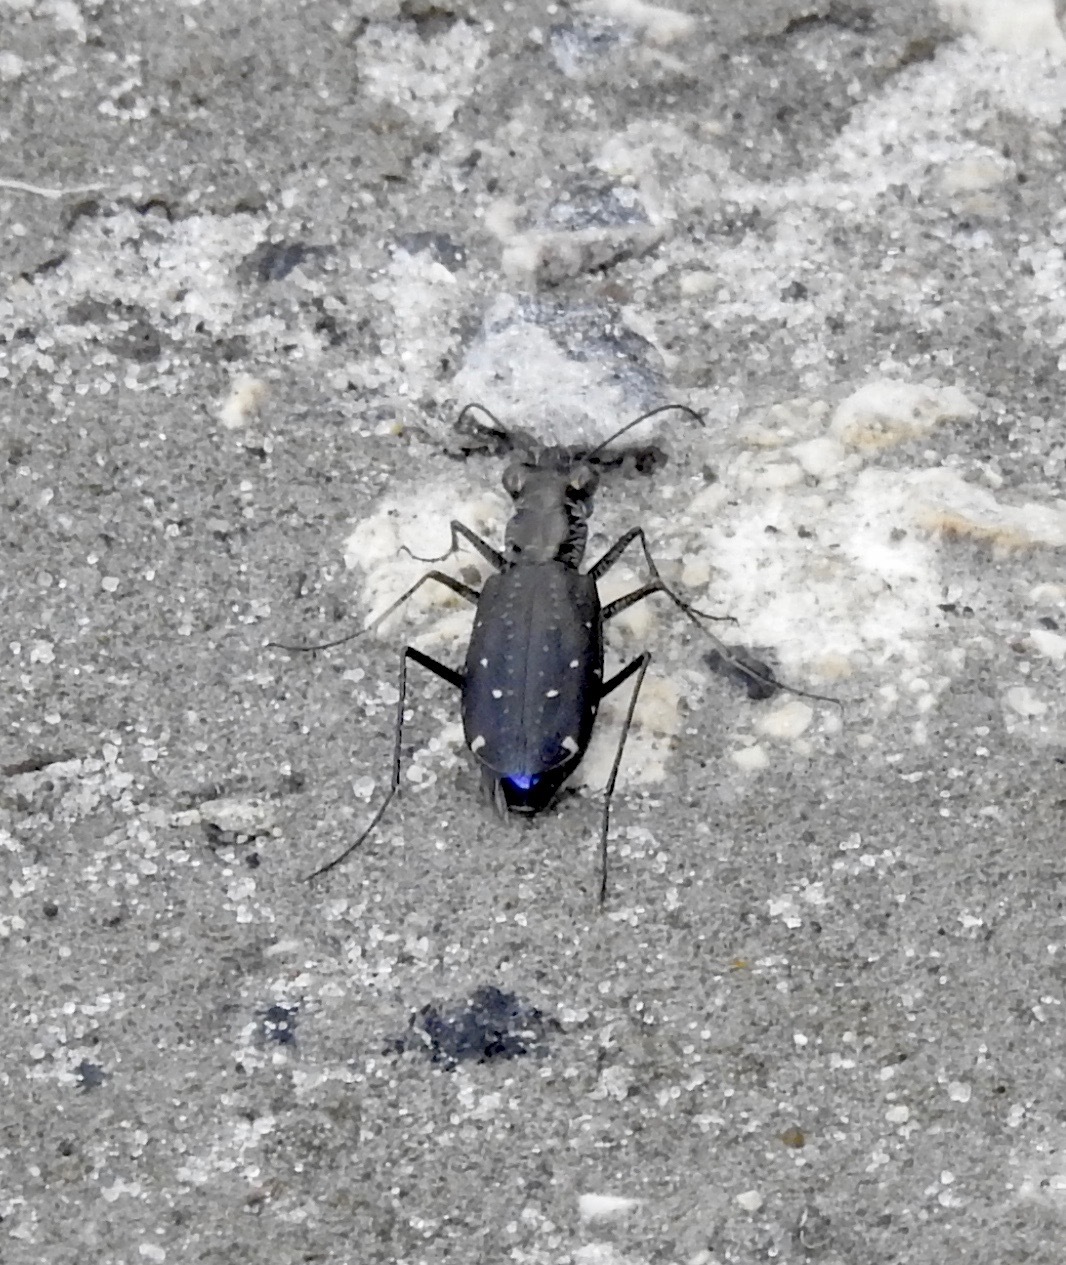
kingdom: Animalia
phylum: Arthropoda
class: Insecta
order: Coleoptera
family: Carabidae
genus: Cicindela
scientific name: Cicindela punctulata
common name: Punctured tiger beetle
